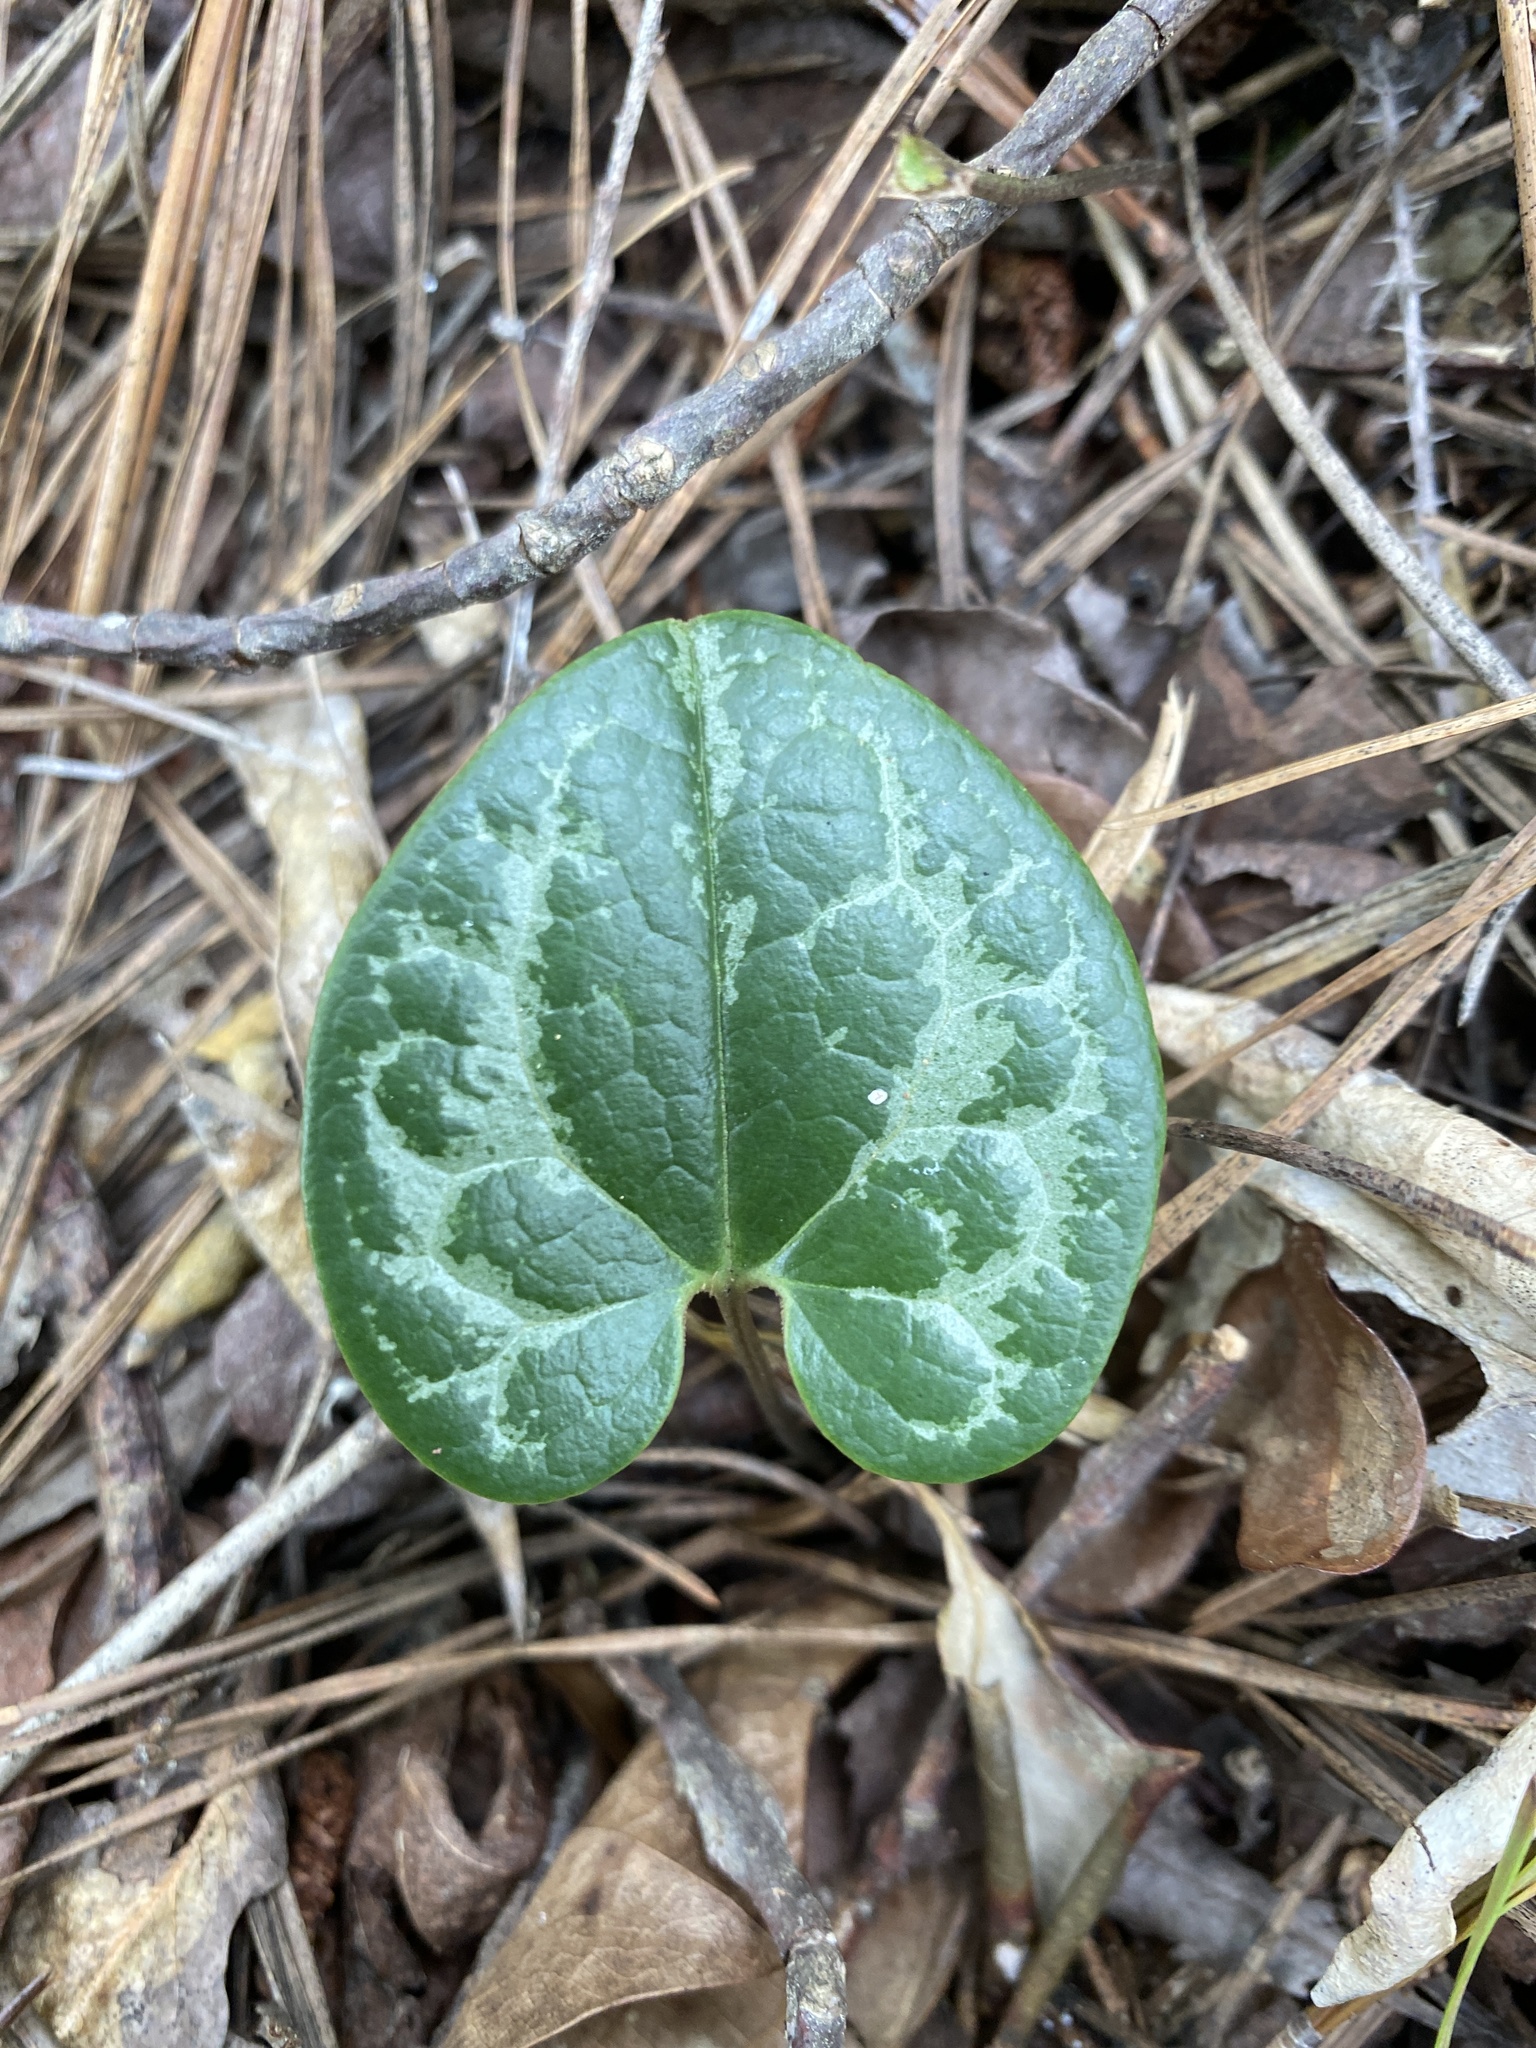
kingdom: Plantae
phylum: Tracheophyta
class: Magnoliopsida
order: Piperales
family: Aristolochiaceae
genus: Hexastylis
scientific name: Hexastylis sorriei
